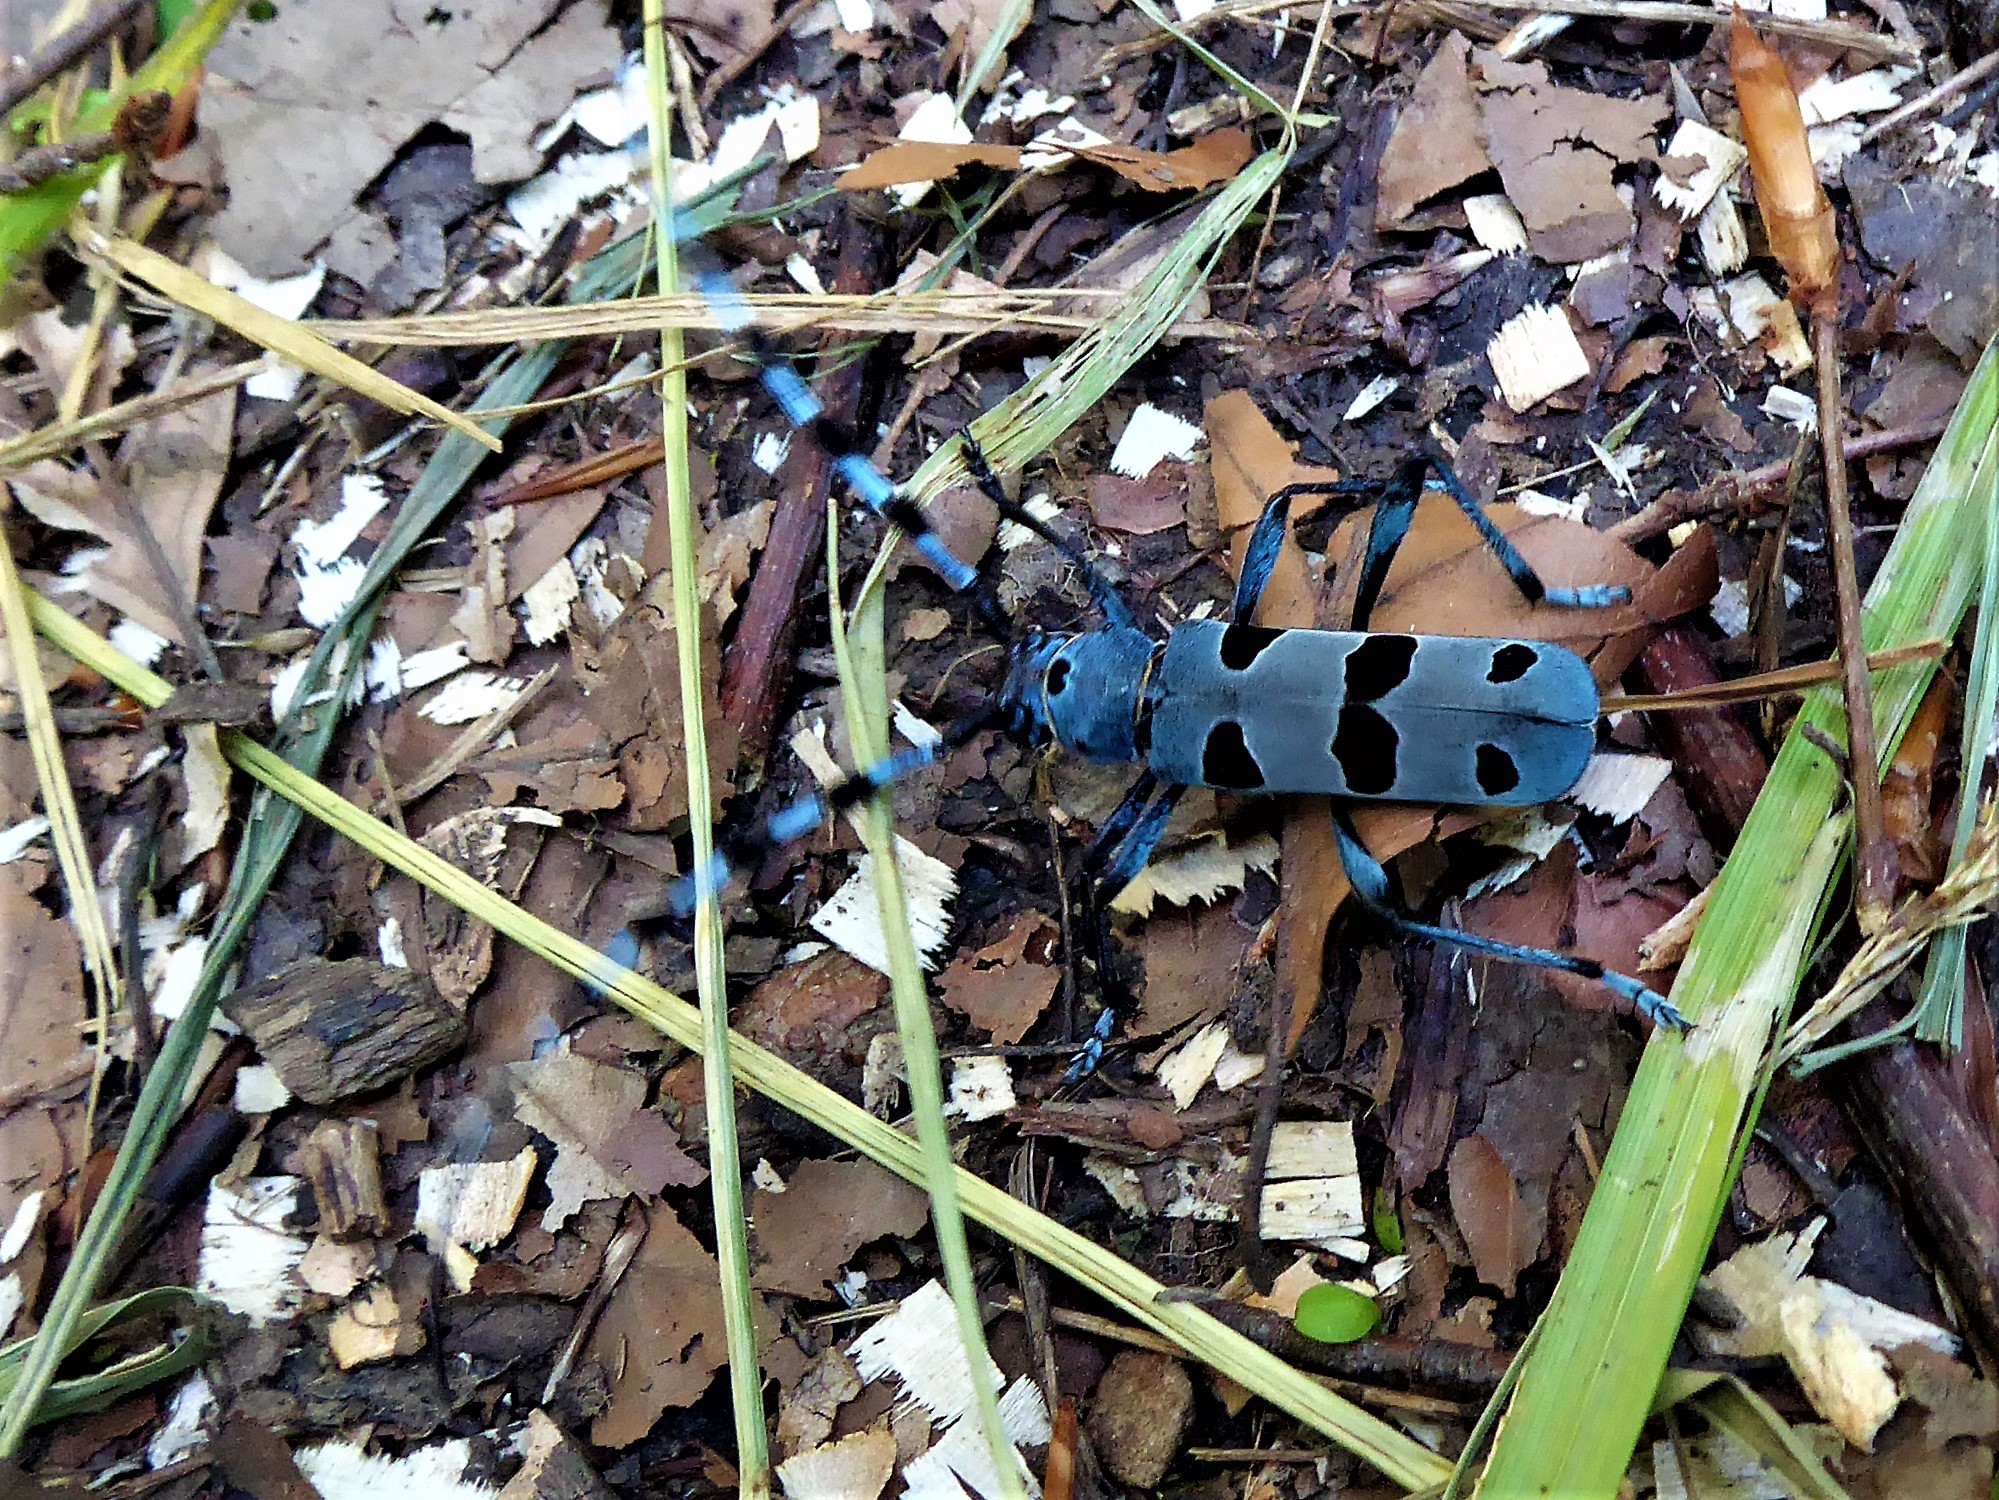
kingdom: Animalia
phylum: Arthropoda
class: Insecta
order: Coleoptera
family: Cerambycidae
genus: Rosalia
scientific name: Rosalia alpina
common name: Rosalia longicorn
